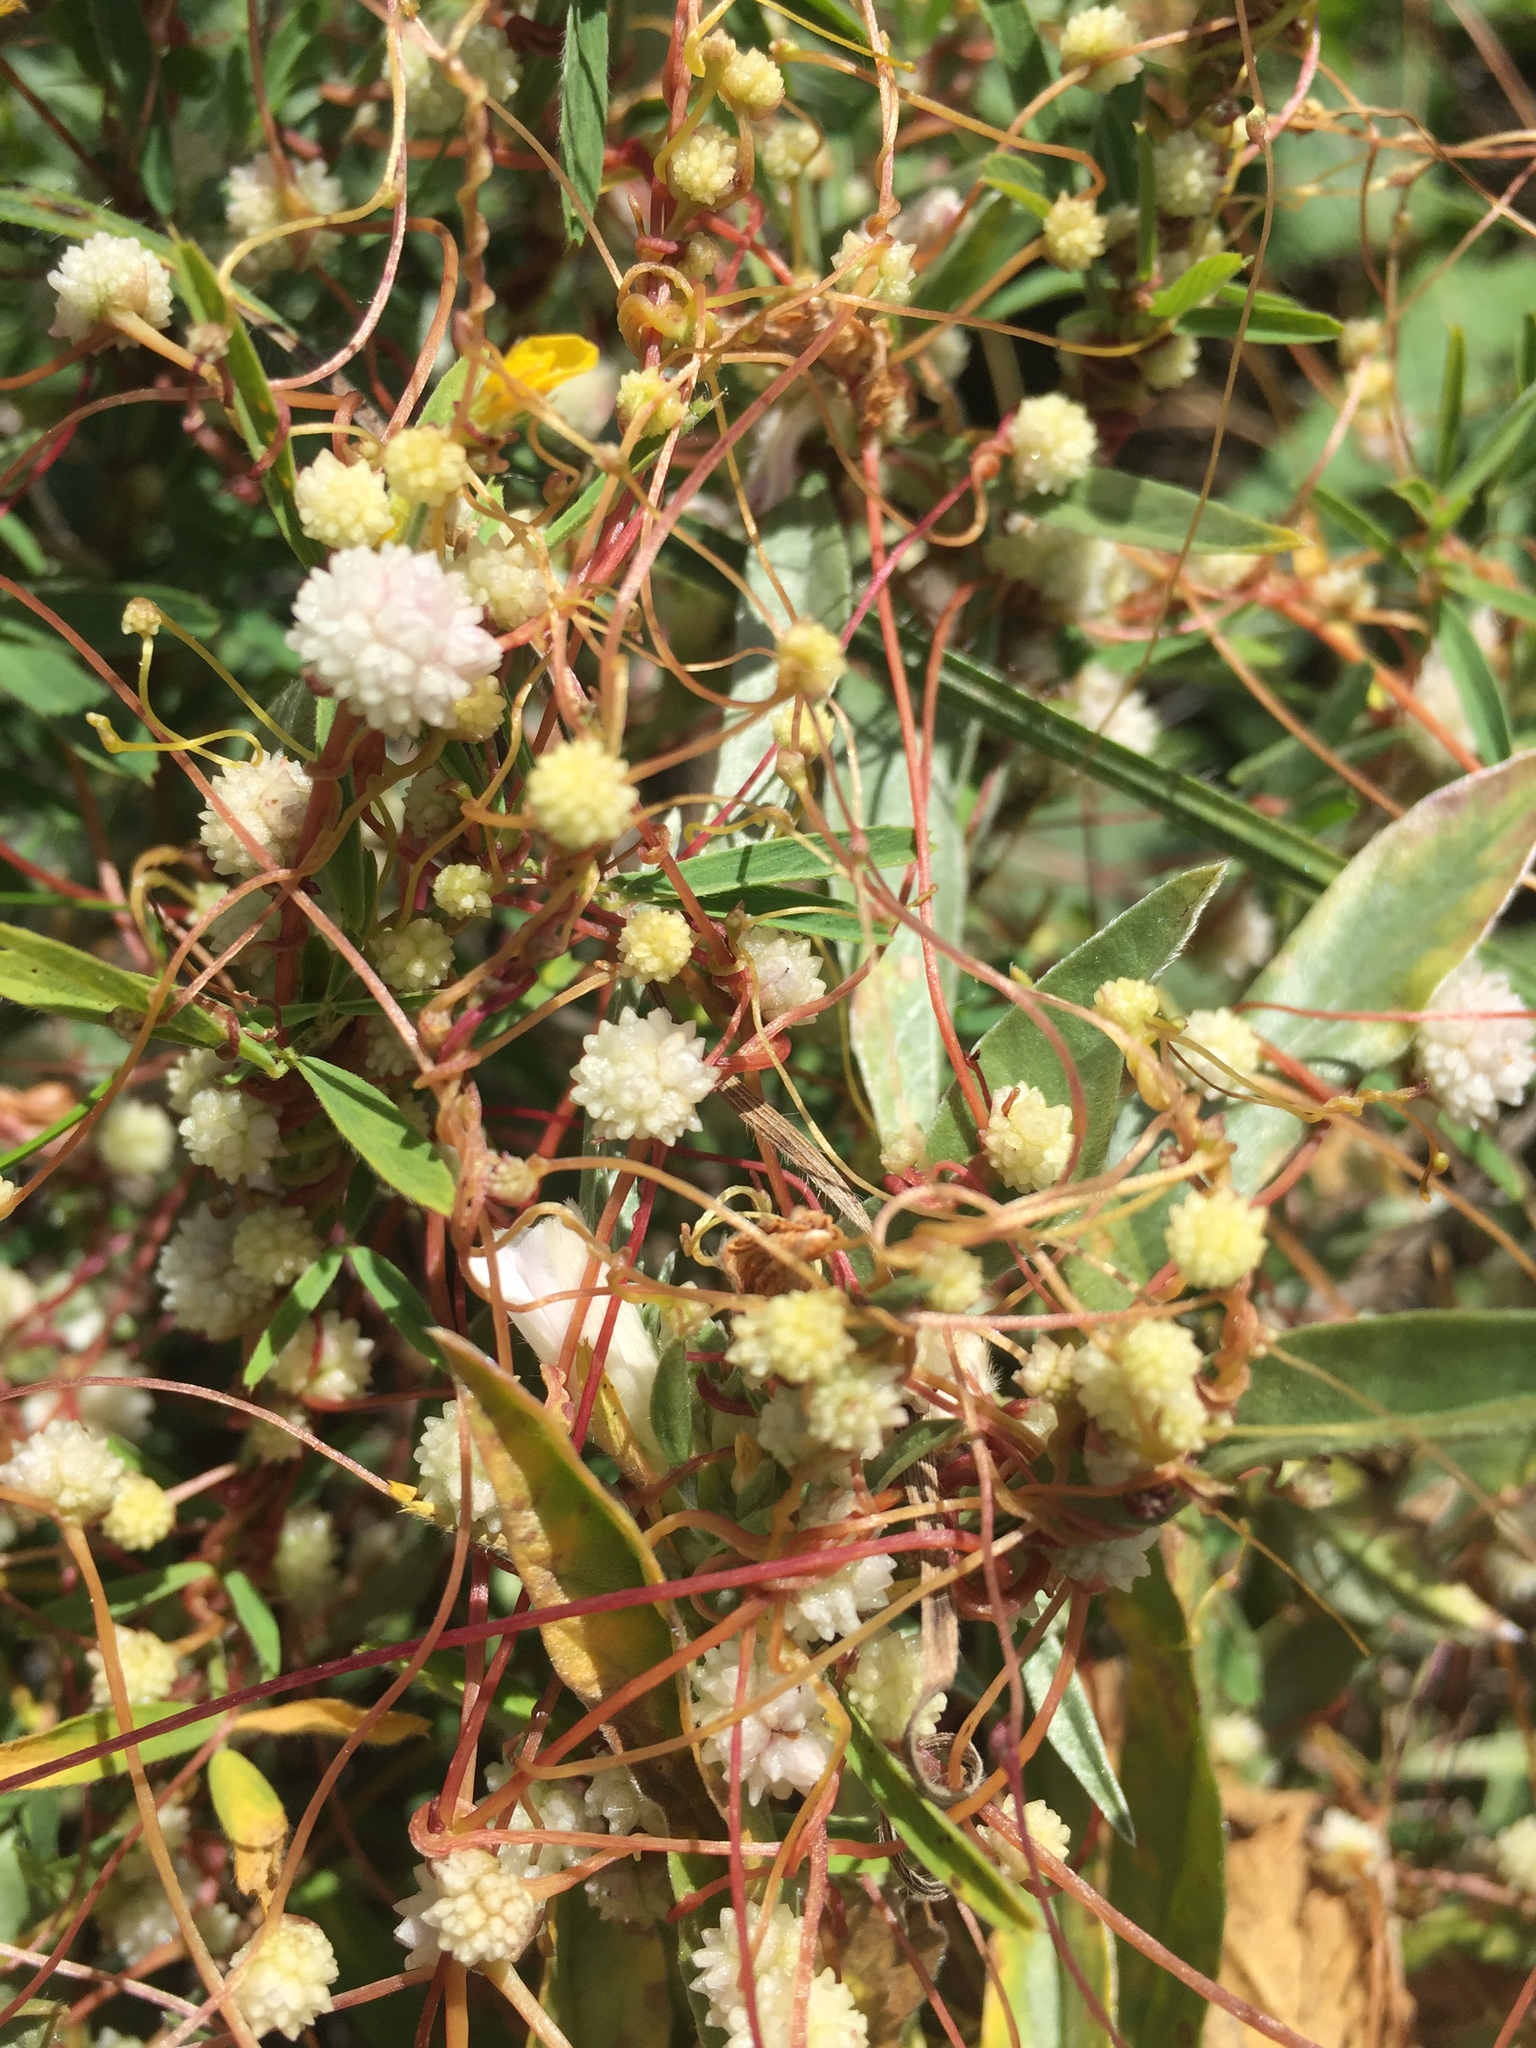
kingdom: Plantae
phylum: Tracheophyta
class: Magnoliopsida
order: Solanales
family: Convolvulaceae
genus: Cuscuta
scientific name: Cuscuta approximata
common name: Alfalfa dodder
